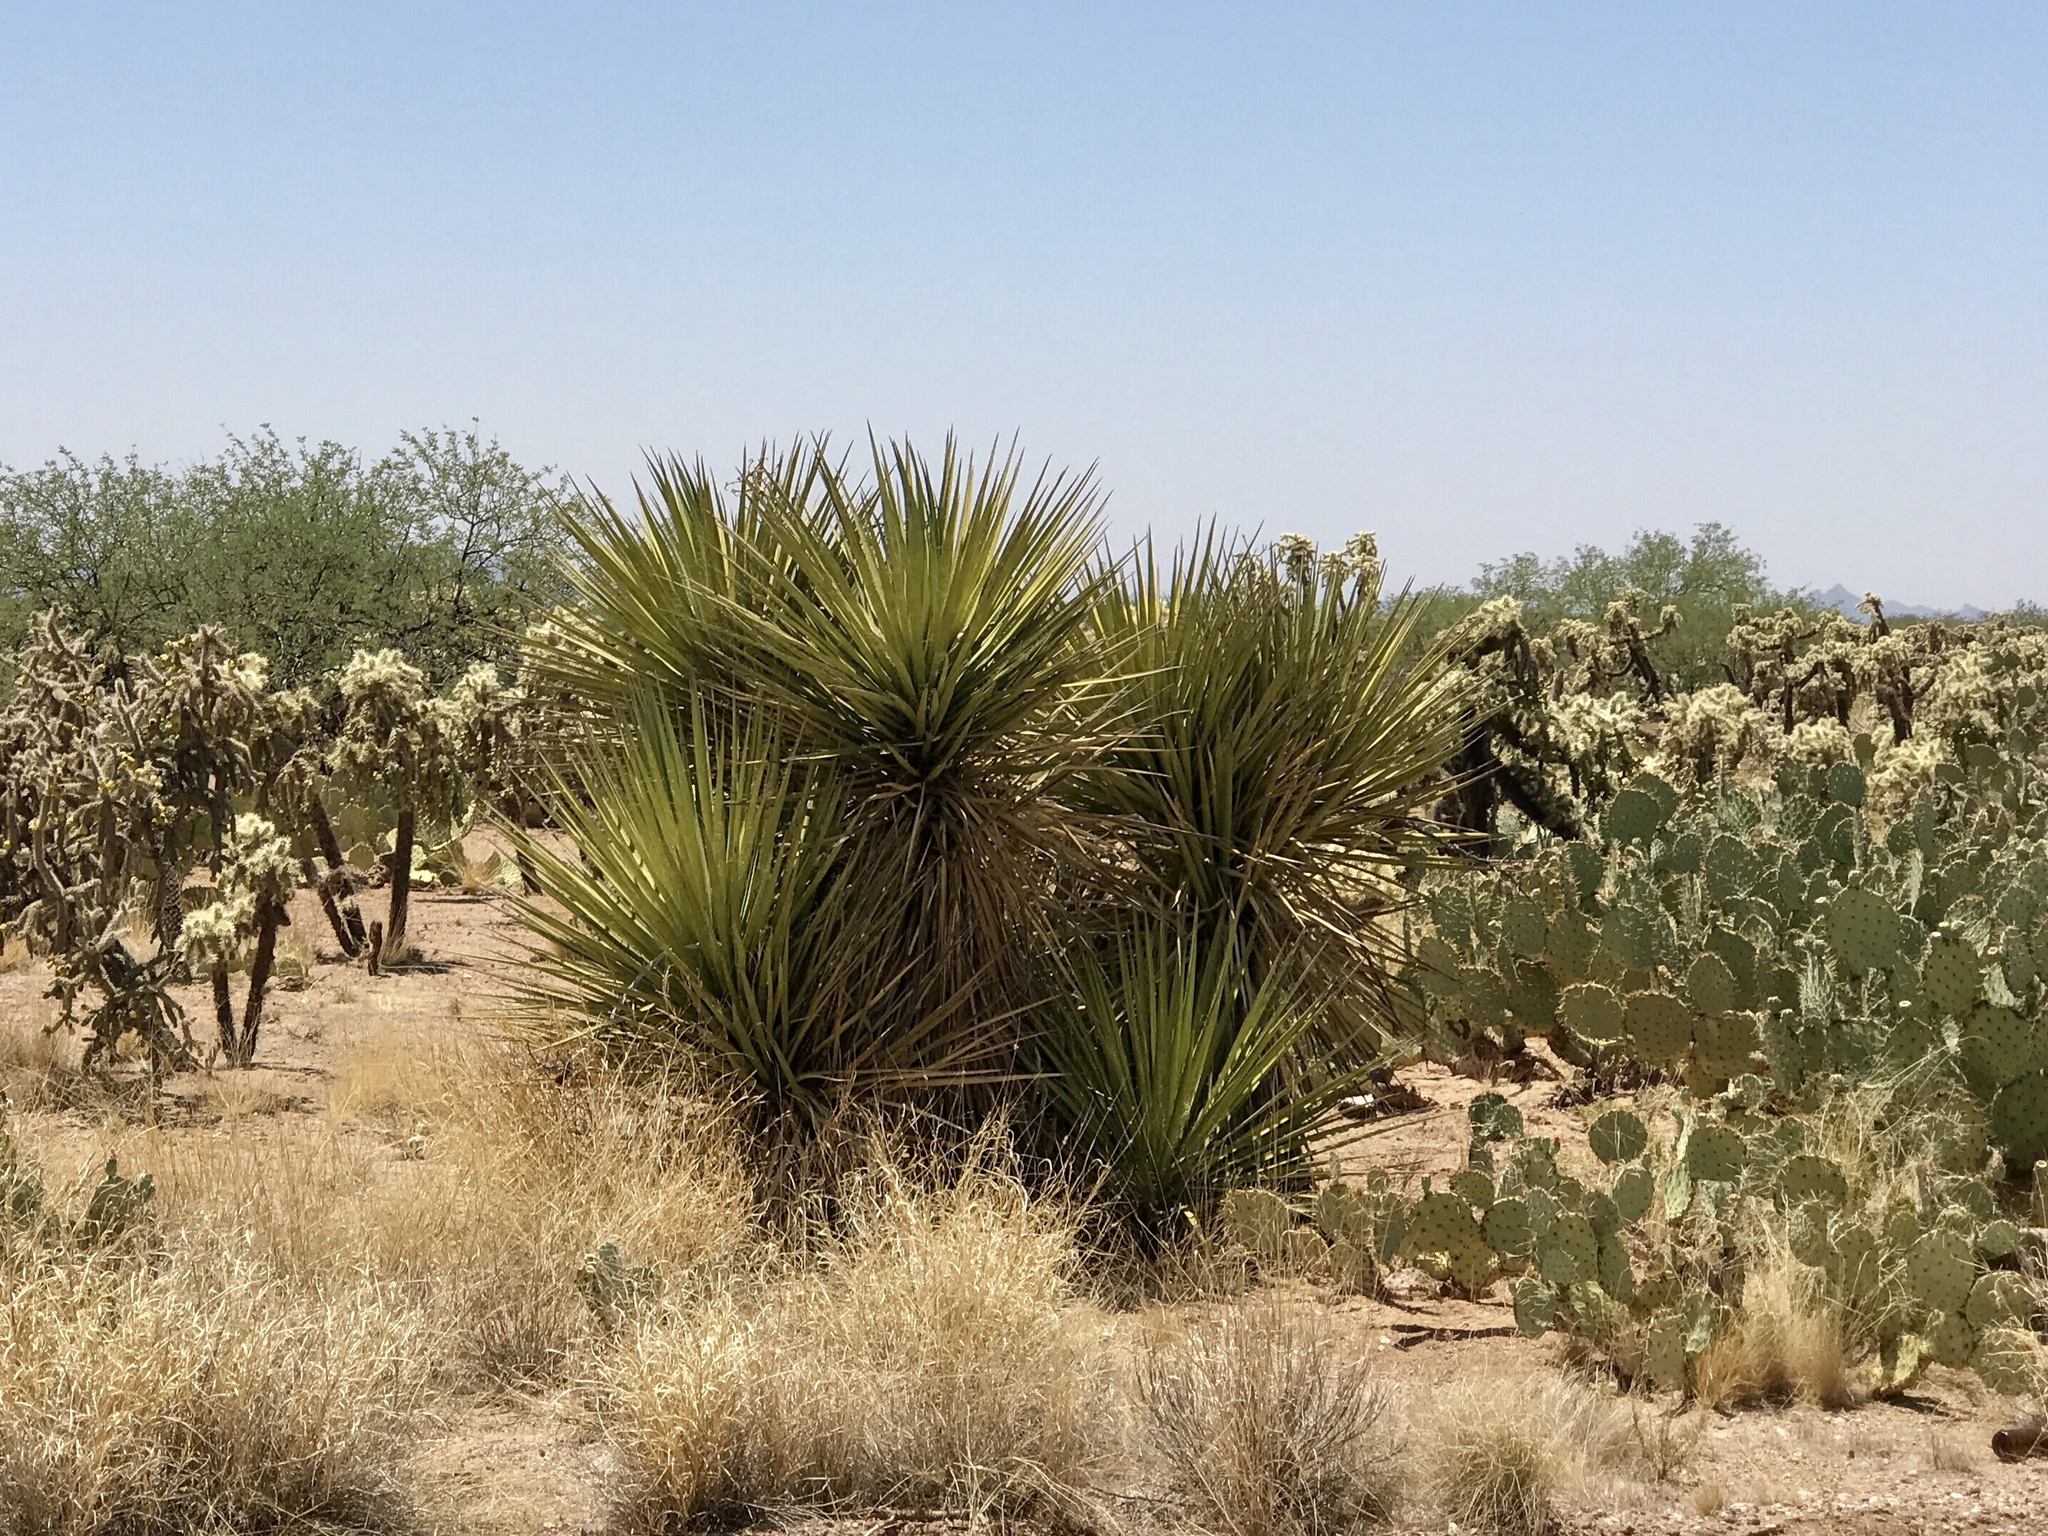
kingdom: Plantae
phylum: Tracheophyta
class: Liliopsida
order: Asparagales
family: Asparagaceae
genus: Yucca
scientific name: Yucca baccata
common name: Banana yucca
